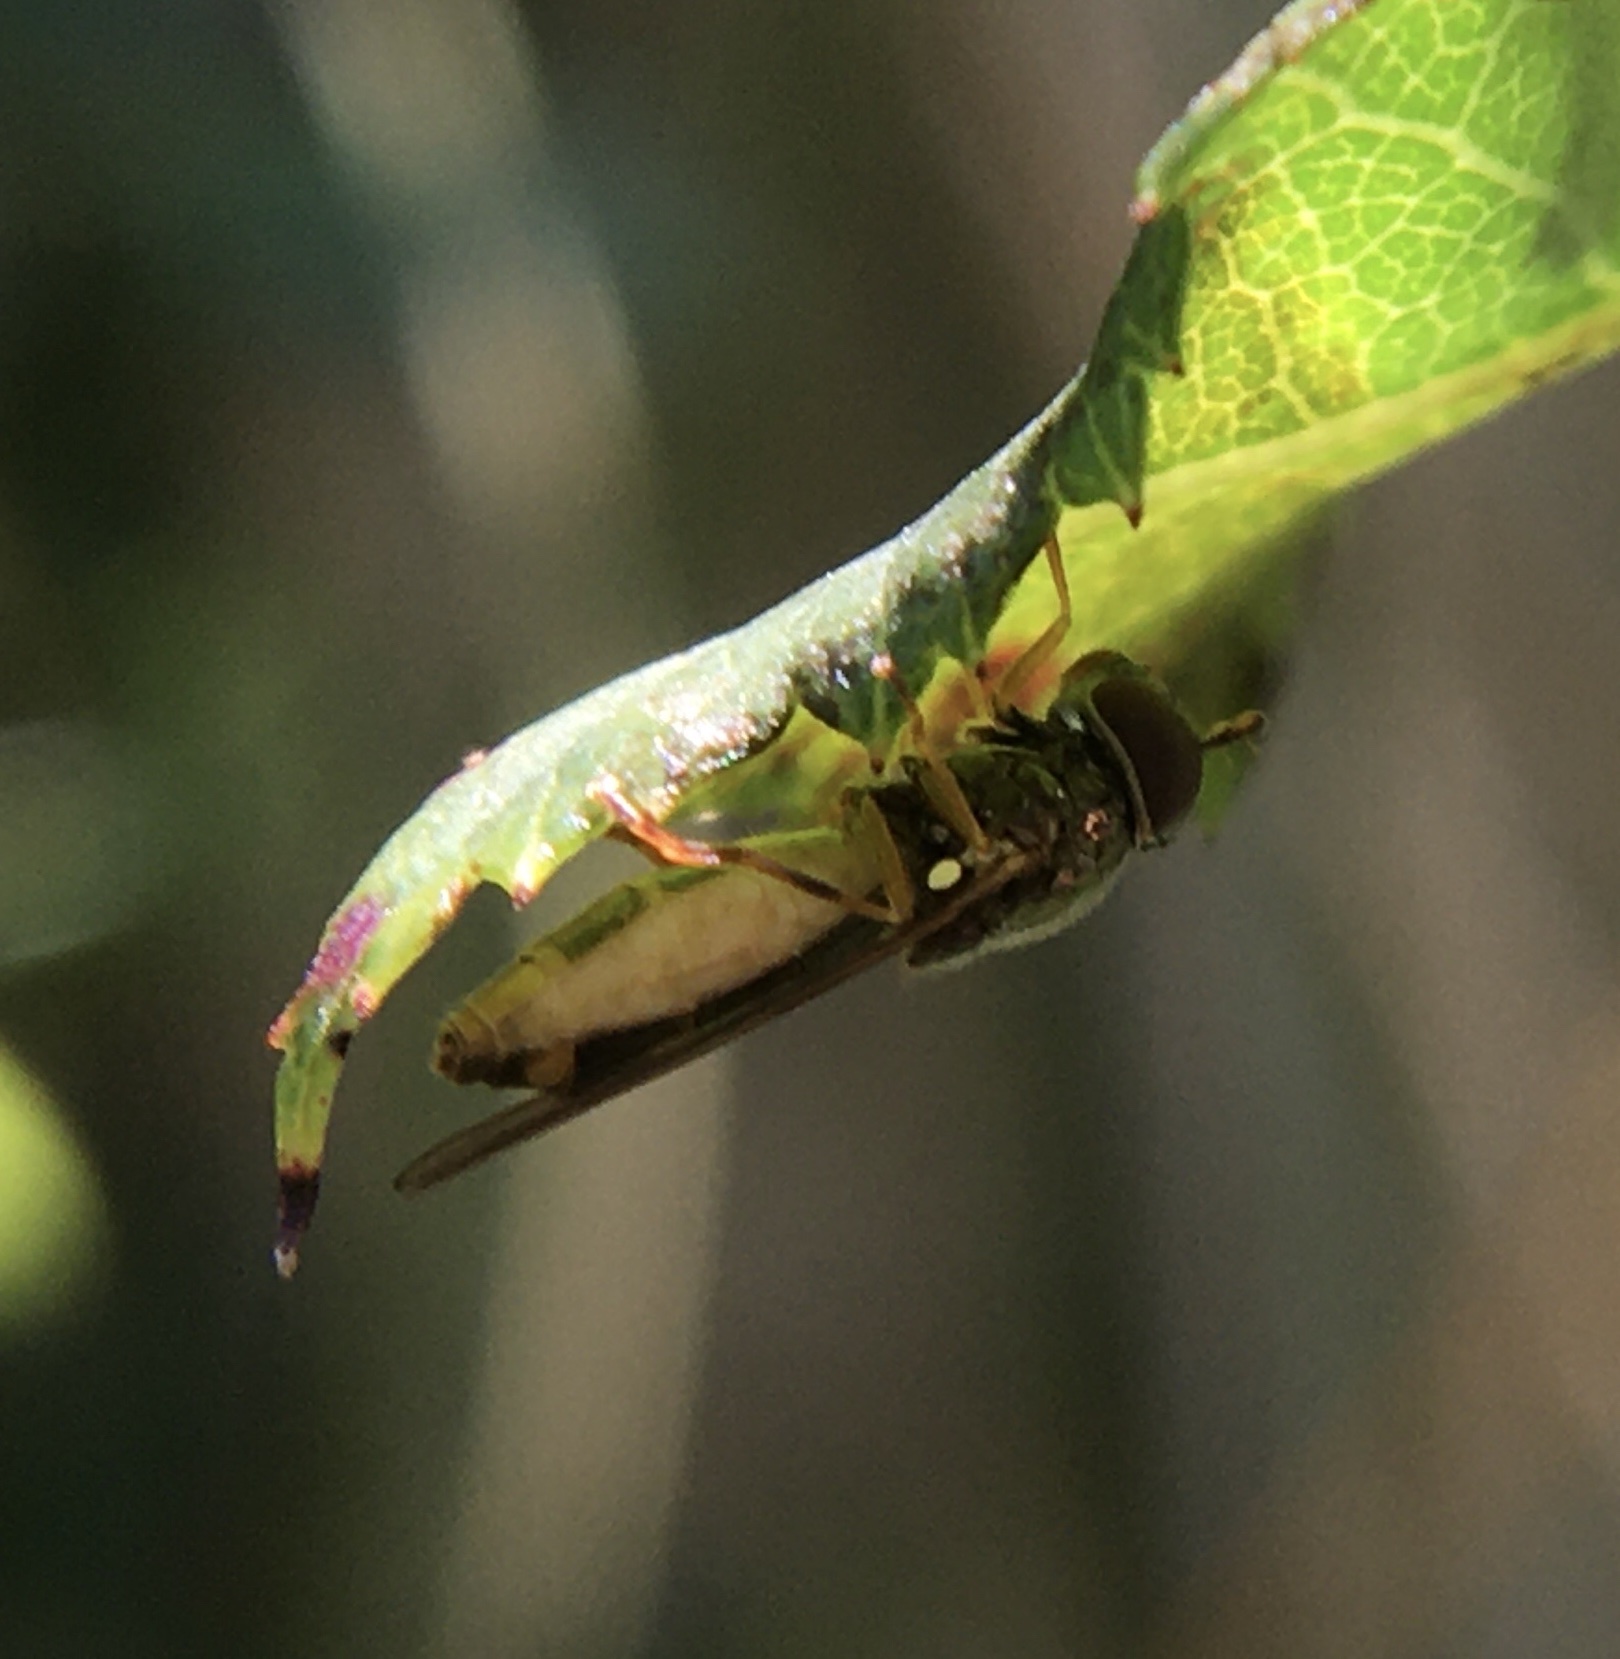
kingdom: Animalia
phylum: Arthropoda
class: Insecta
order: Diptera
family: Syrphidae
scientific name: Syrphidae
